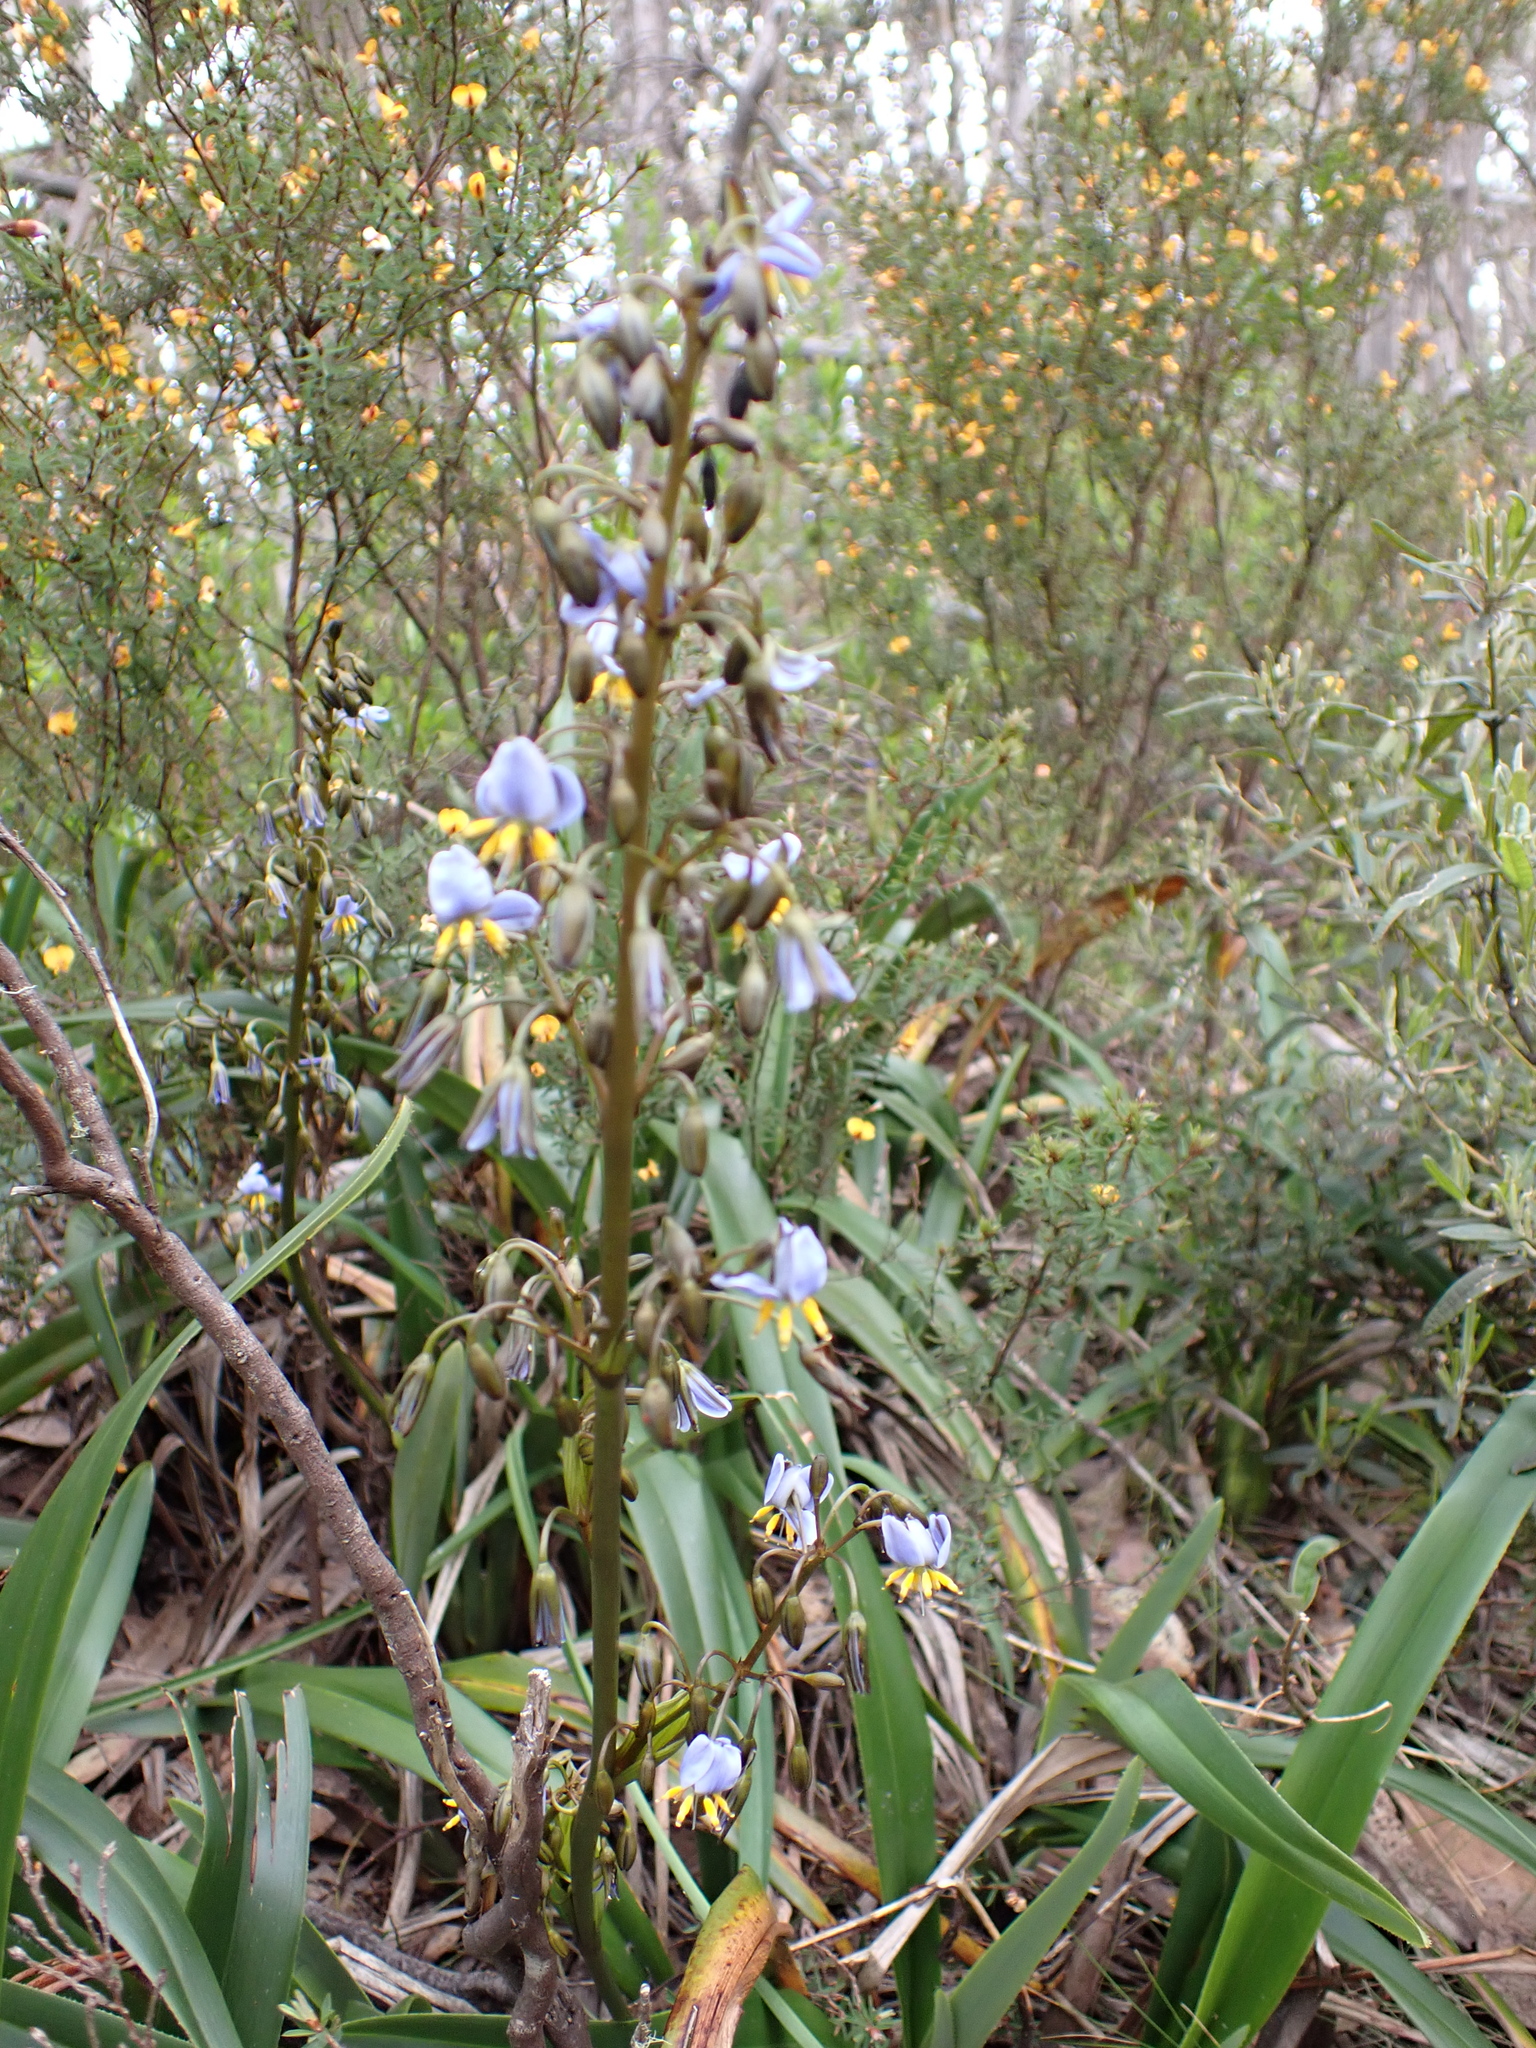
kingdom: Plantae
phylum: Tracheophyta
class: Liliopsida
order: Asparagales
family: Asphodelaceae
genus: Dianella
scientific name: Dianella tasmanica
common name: Tasman flax-lily
